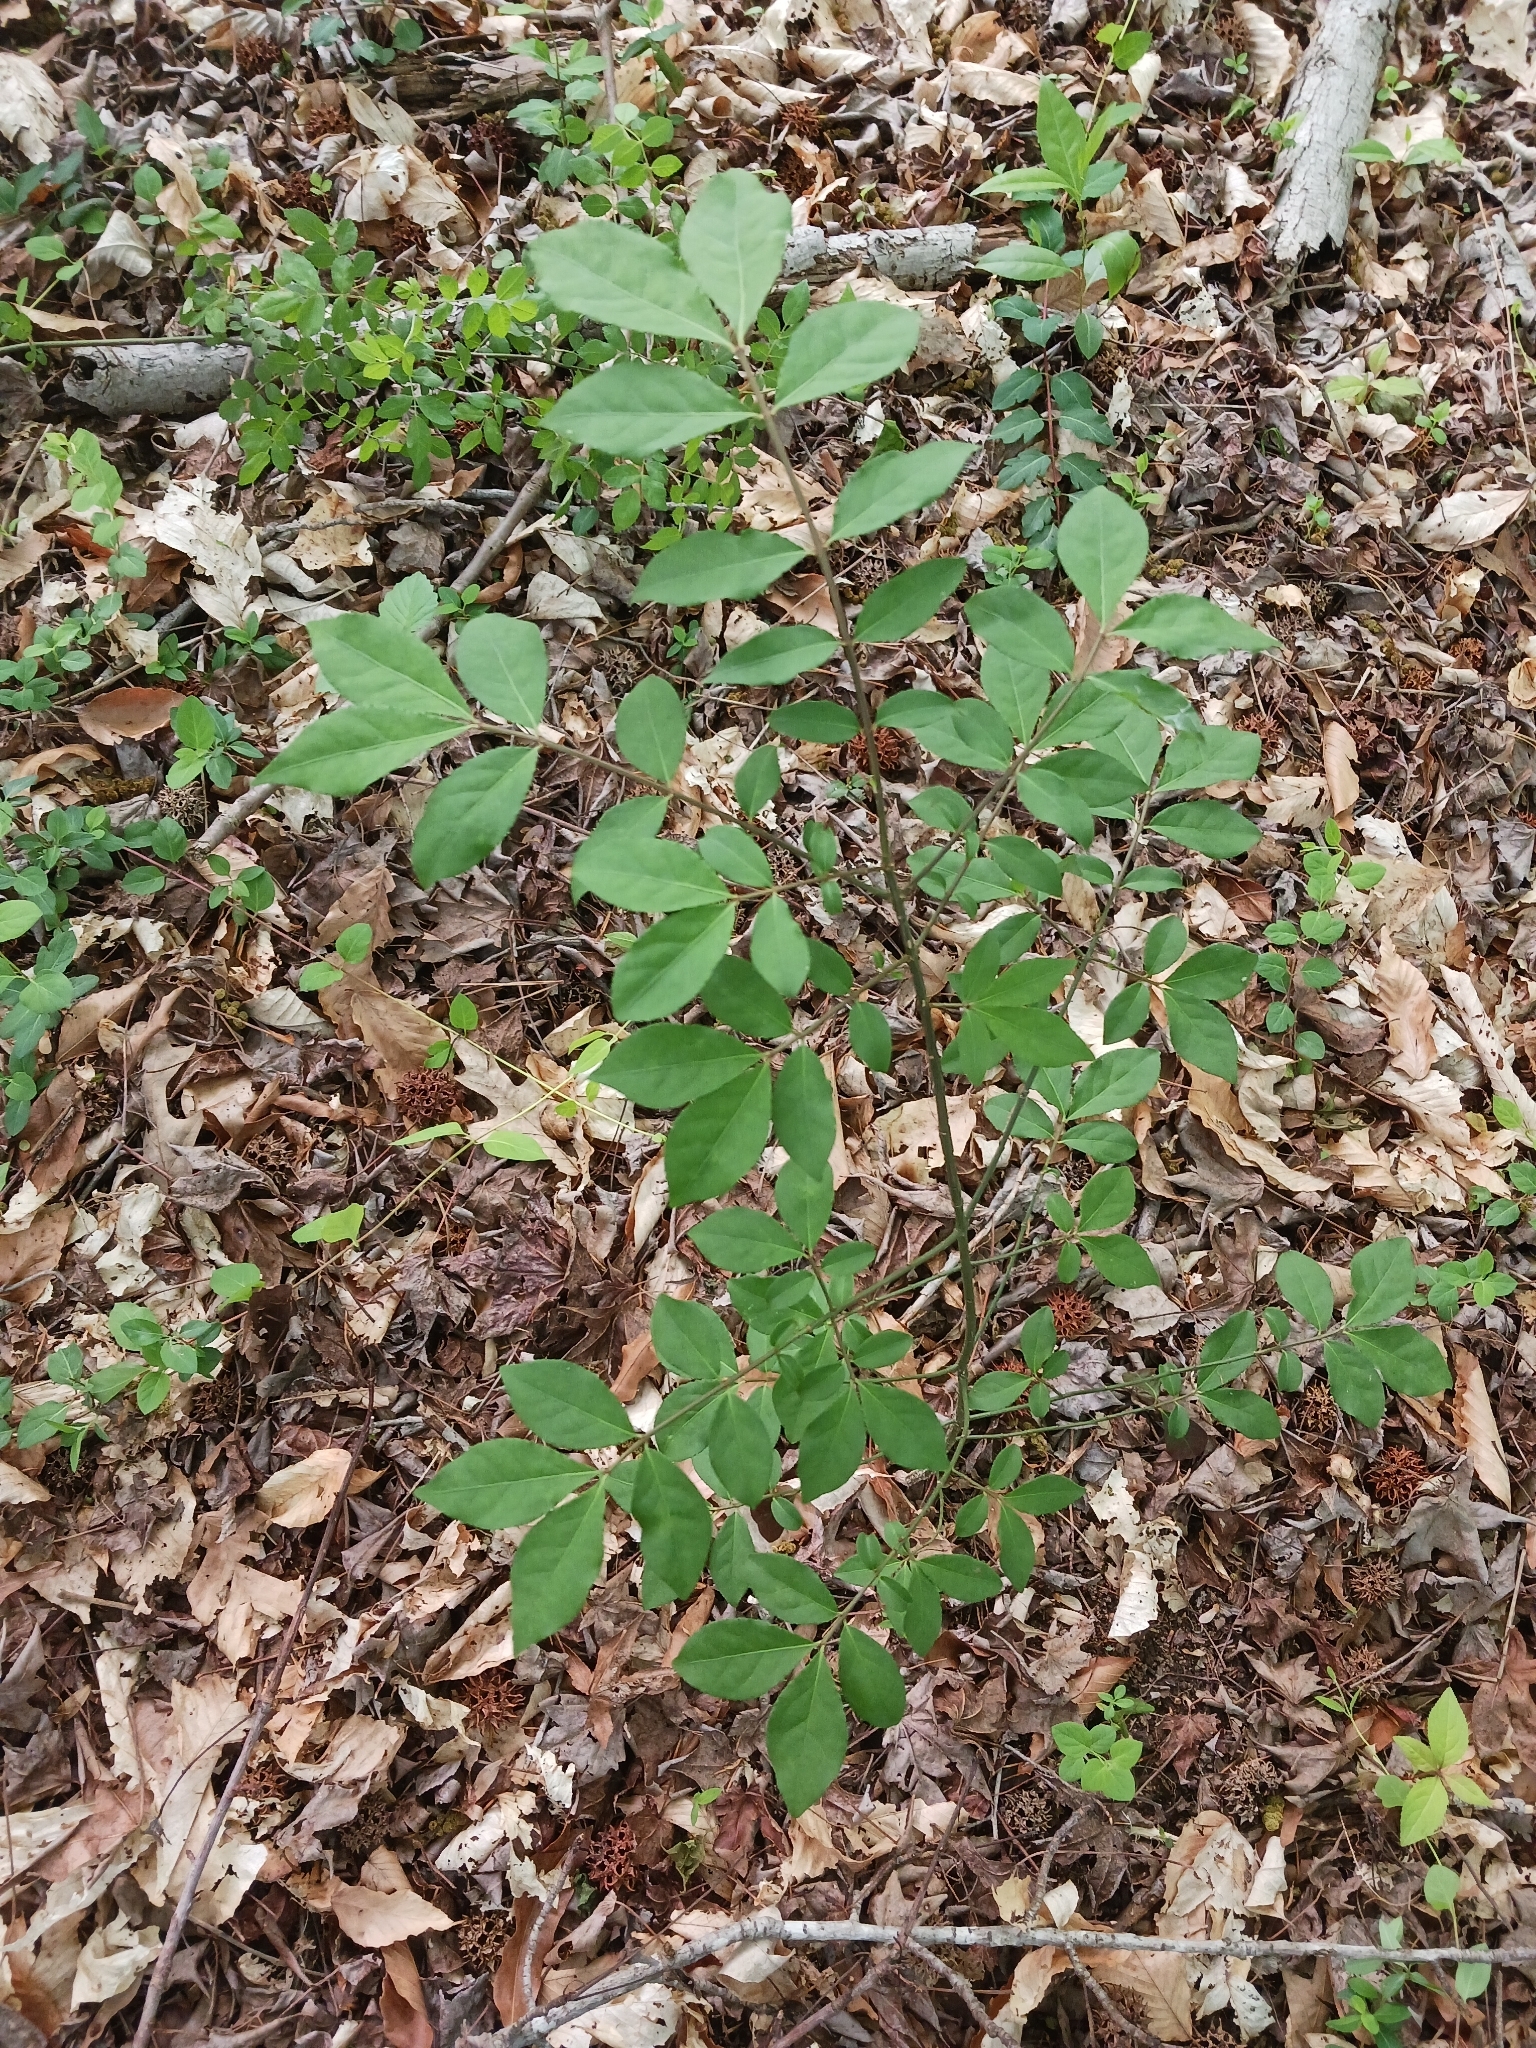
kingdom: Plantae
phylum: Tracheophyta
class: Magnoliopsida
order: Celastrales
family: Celastraceae
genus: Euonymus
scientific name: Euonymus alatus
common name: Winged euonymus
